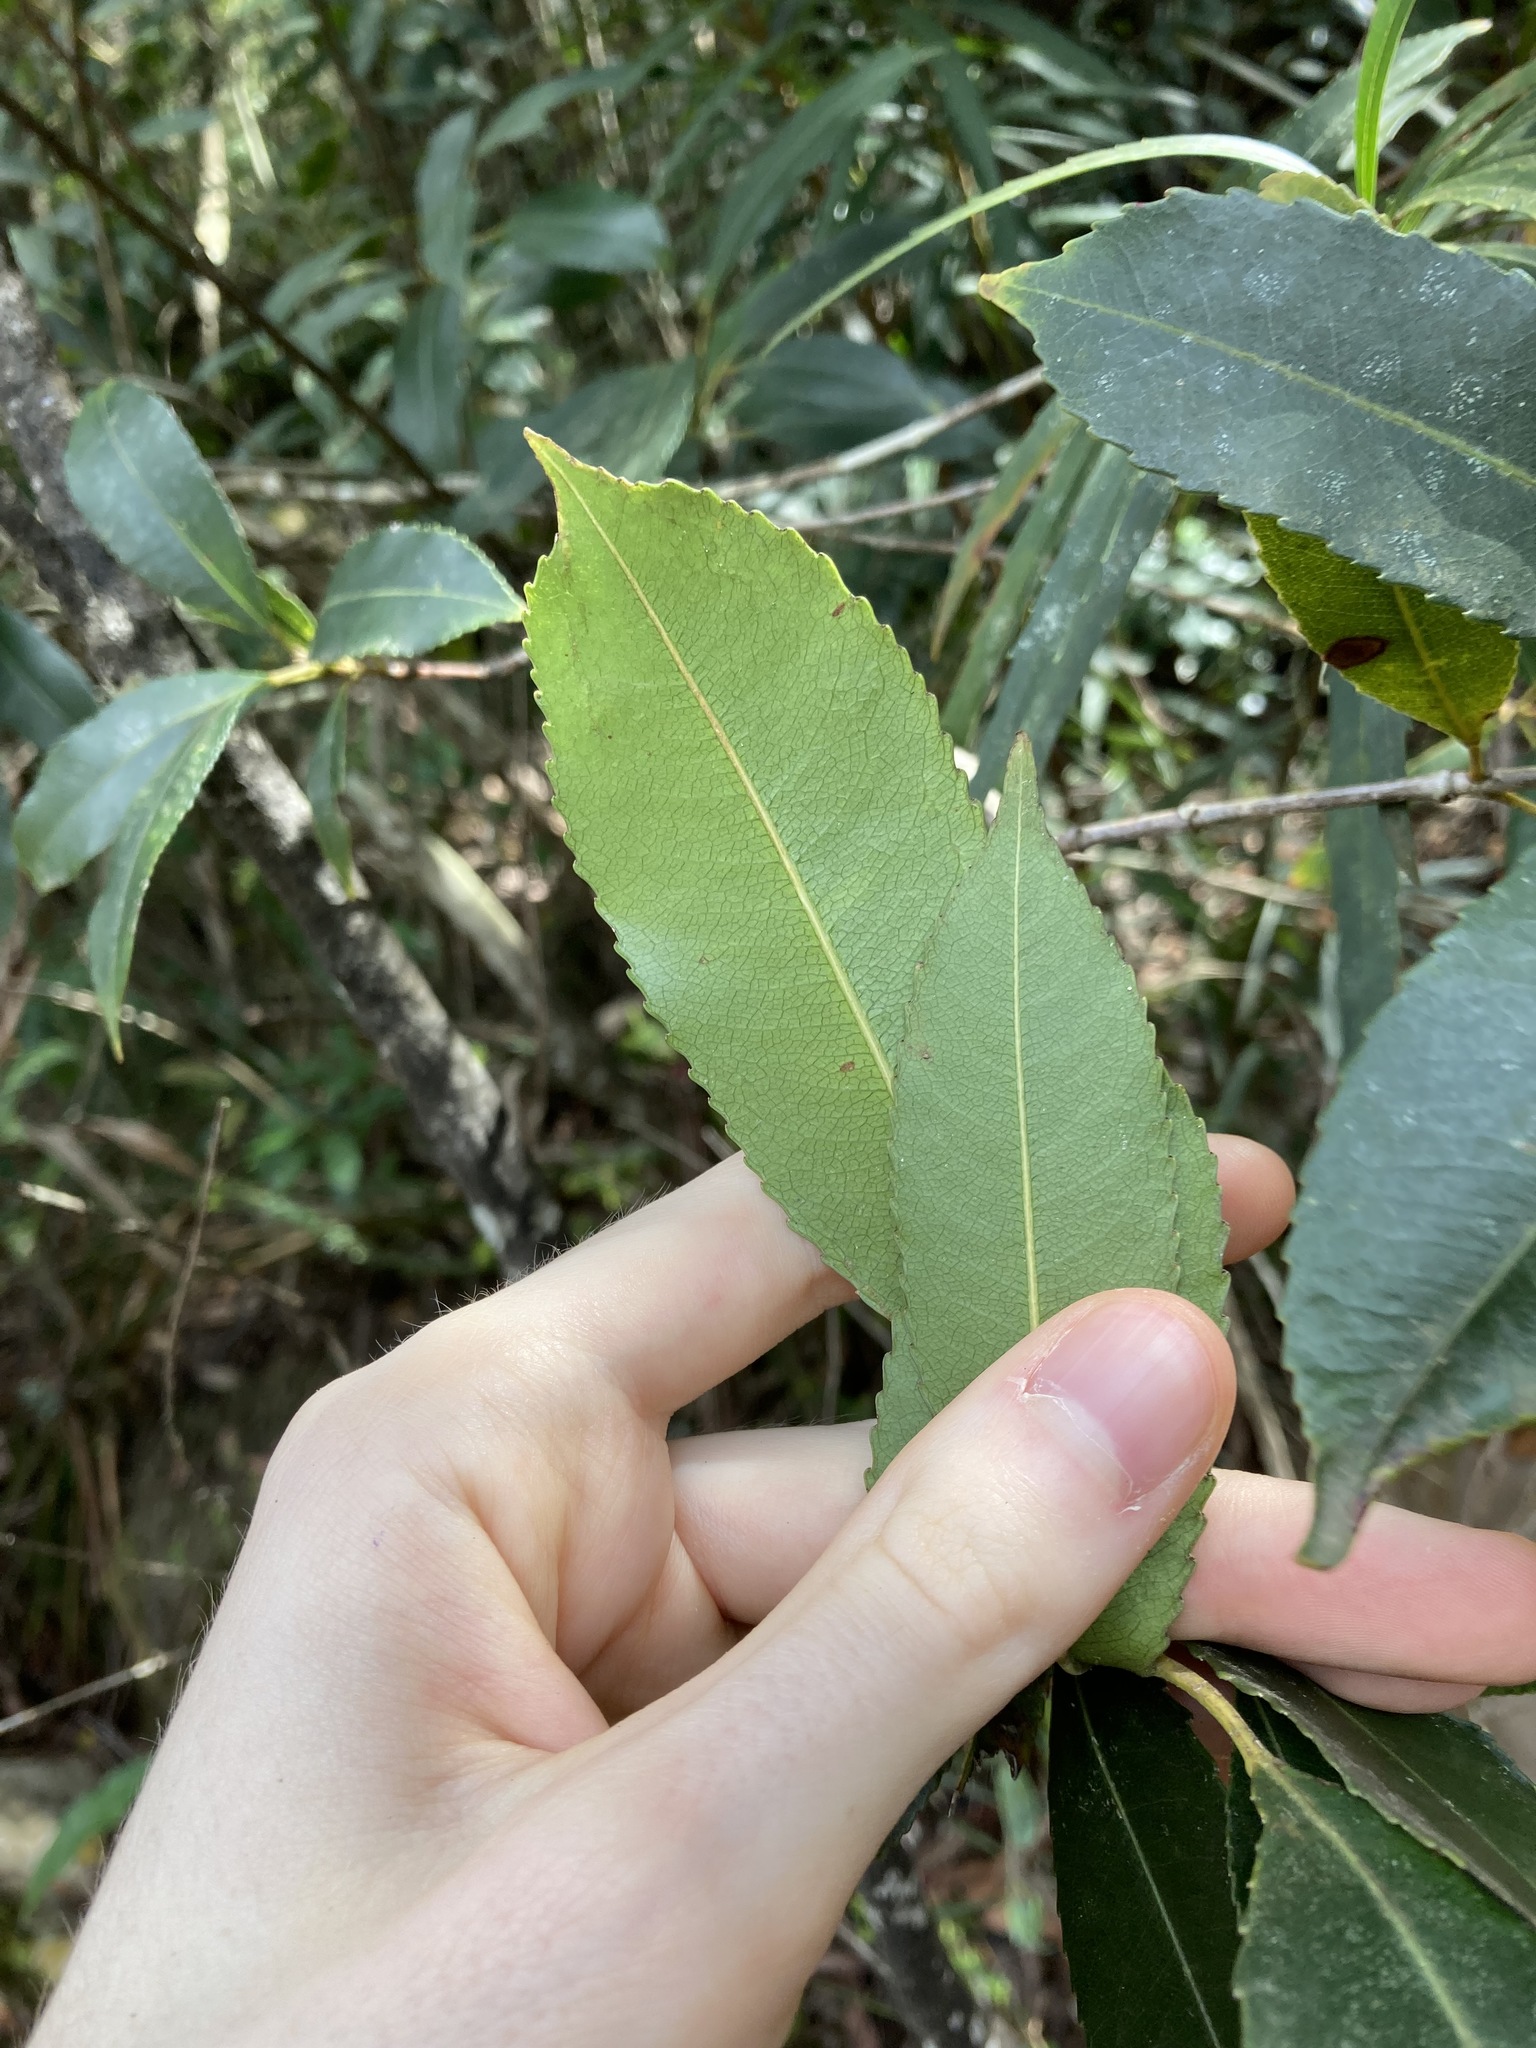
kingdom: Plantae
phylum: Tracheophyta
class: Magnoliopsida
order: Oxalidales
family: Cunoniaceae
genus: Ceratopetalum
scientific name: Ceratopetalum apetalum
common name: Scented satinwood
